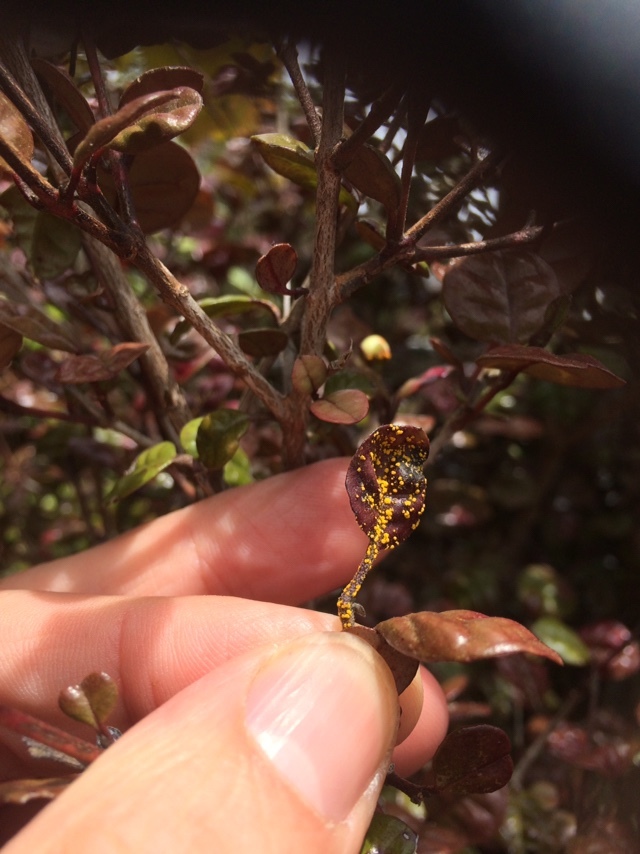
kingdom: Fungi
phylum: Basidiomycota
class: Pucciniomycetes
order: Pucciniales
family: Sphaerophragmiaceae
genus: Austropuccinia
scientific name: Austropuccinia psidii
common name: Myrtle rust
